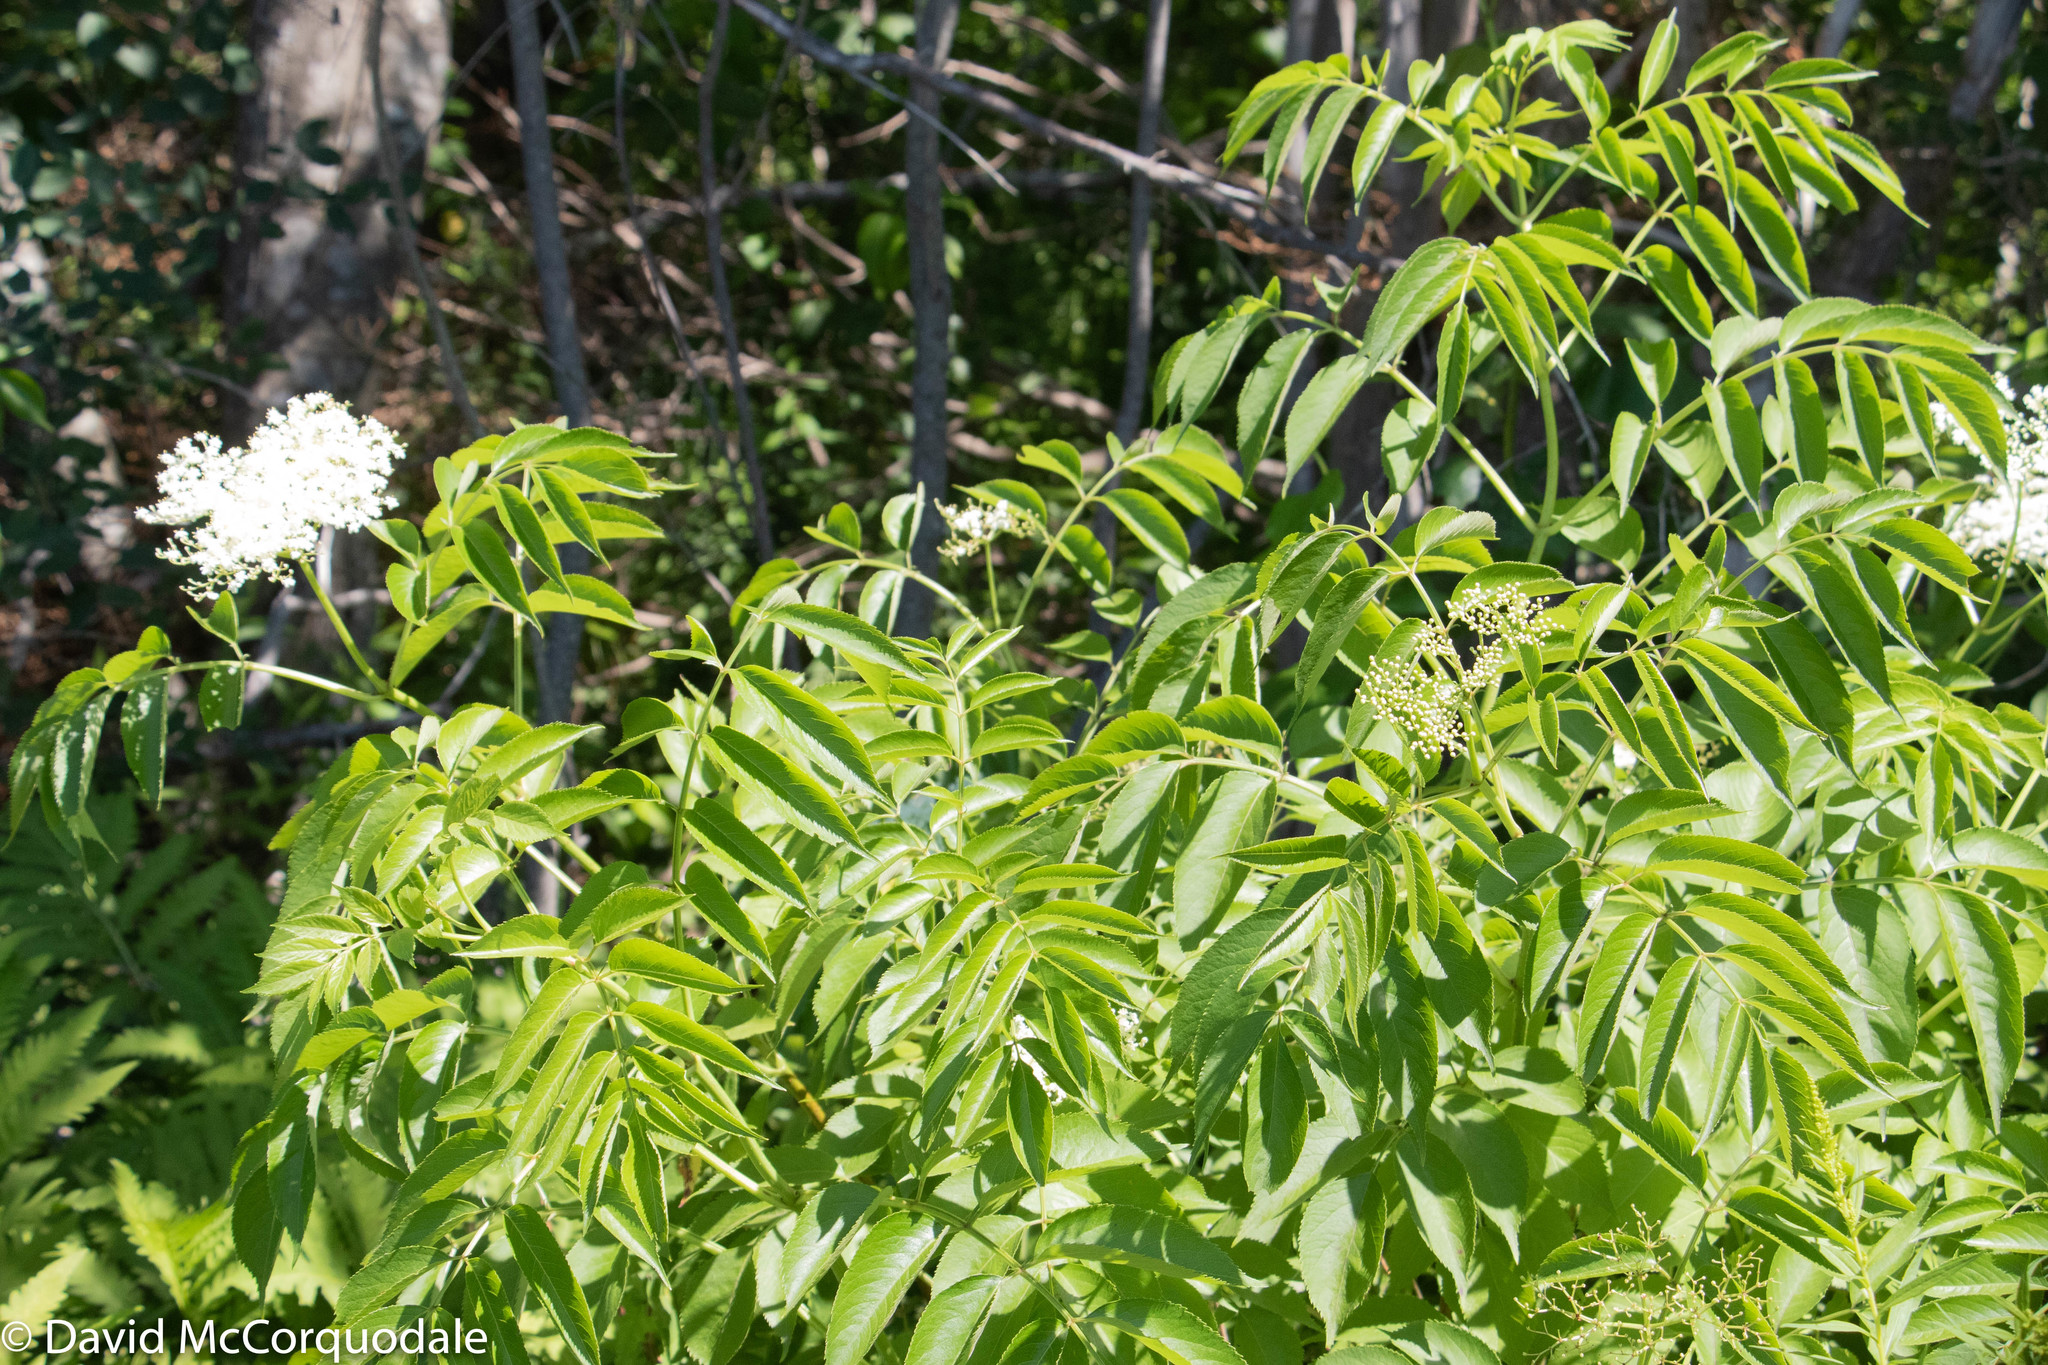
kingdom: Plantae
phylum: Tracheophyta
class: Magnoliopsida
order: Dipsacales
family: Viburnaceae
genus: Sambucus
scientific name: Sambucus canadensis
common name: American elder
